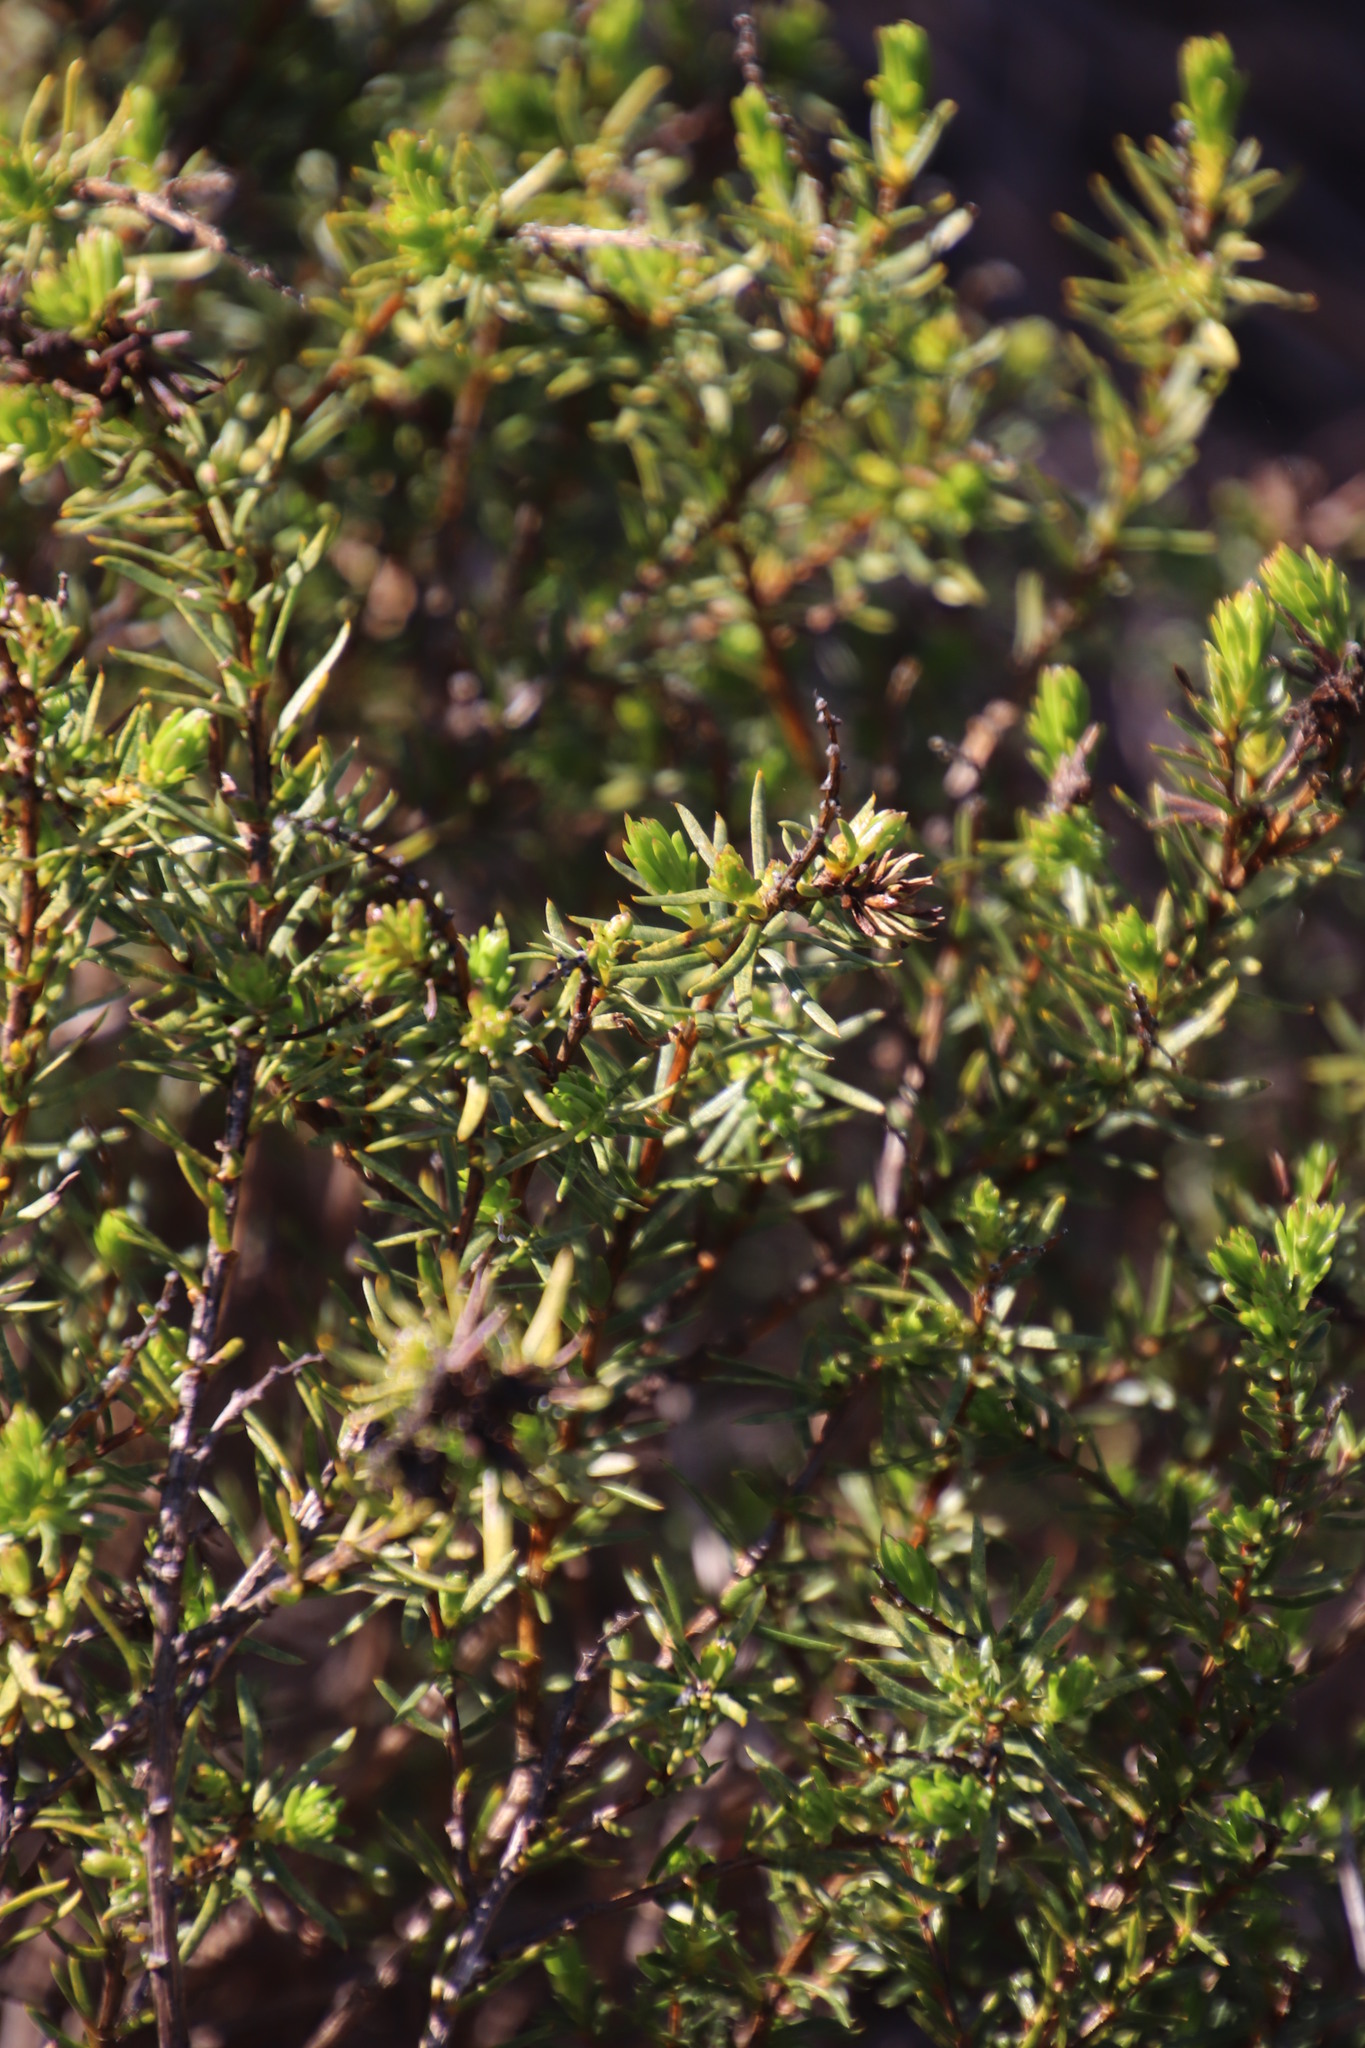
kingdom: Plantae
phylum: Tracheophyta
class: Magnoliopsida
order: Fabales
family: Fabaceae
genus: Aspalathus
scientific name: Aspalathus callosa
